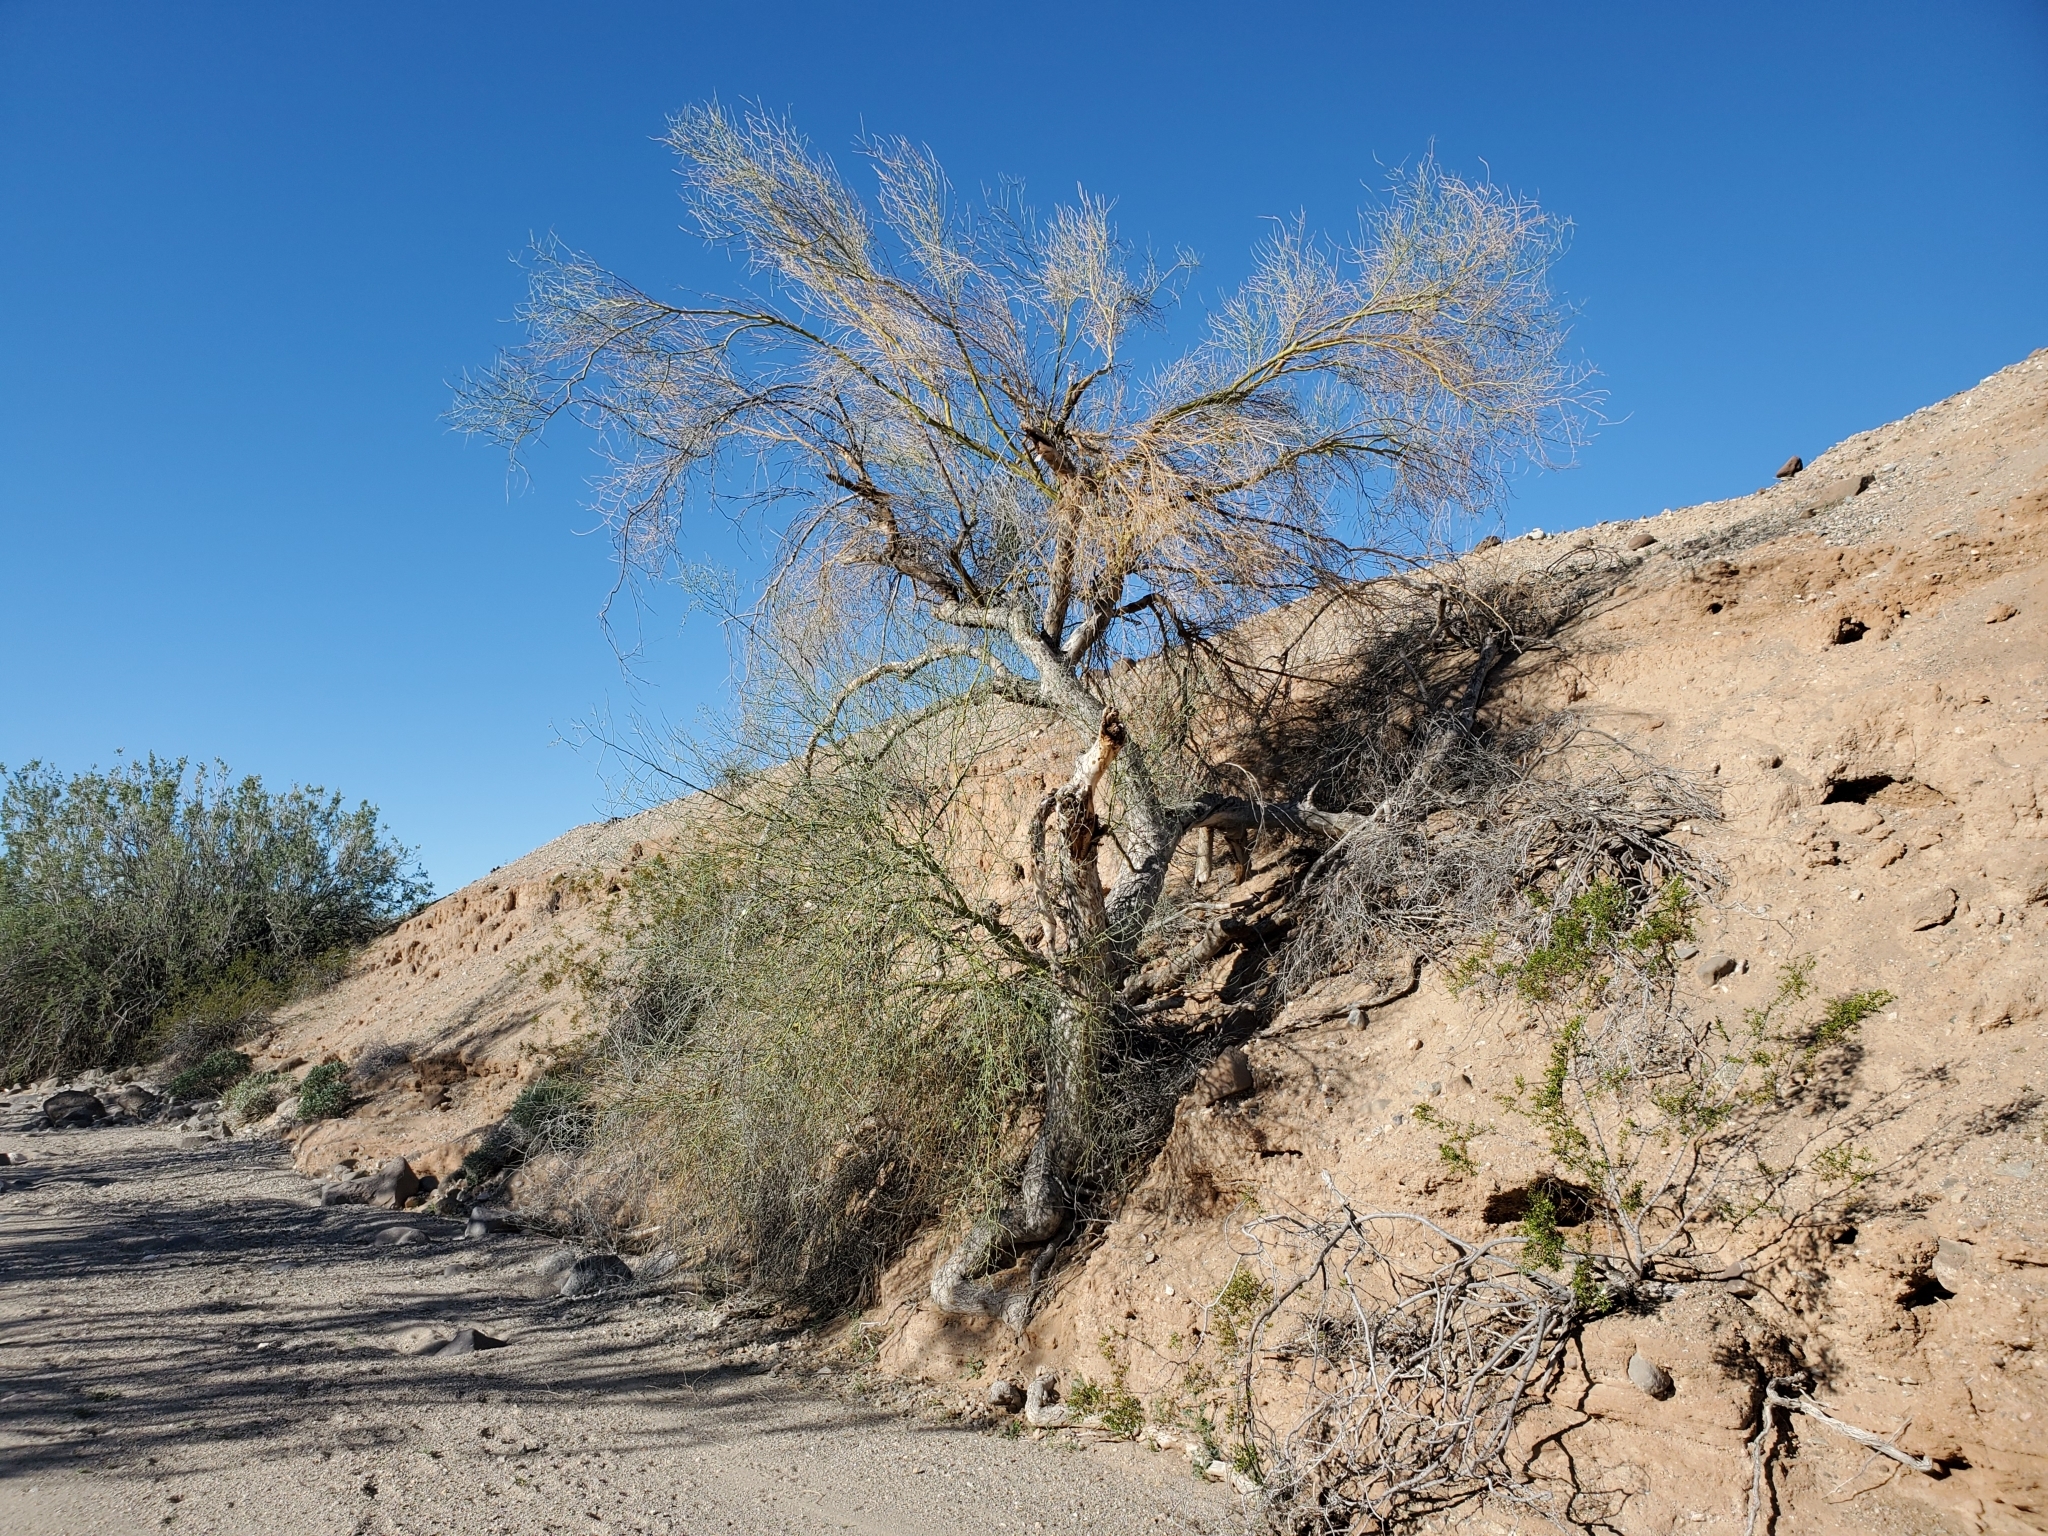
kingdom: Plantae
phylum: Tracheophyta
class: Magnoliopsida
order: Fabales
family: Fabaceae
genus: Parkinsonia
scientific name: Parkinsonia florida
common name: Blue paloverde
